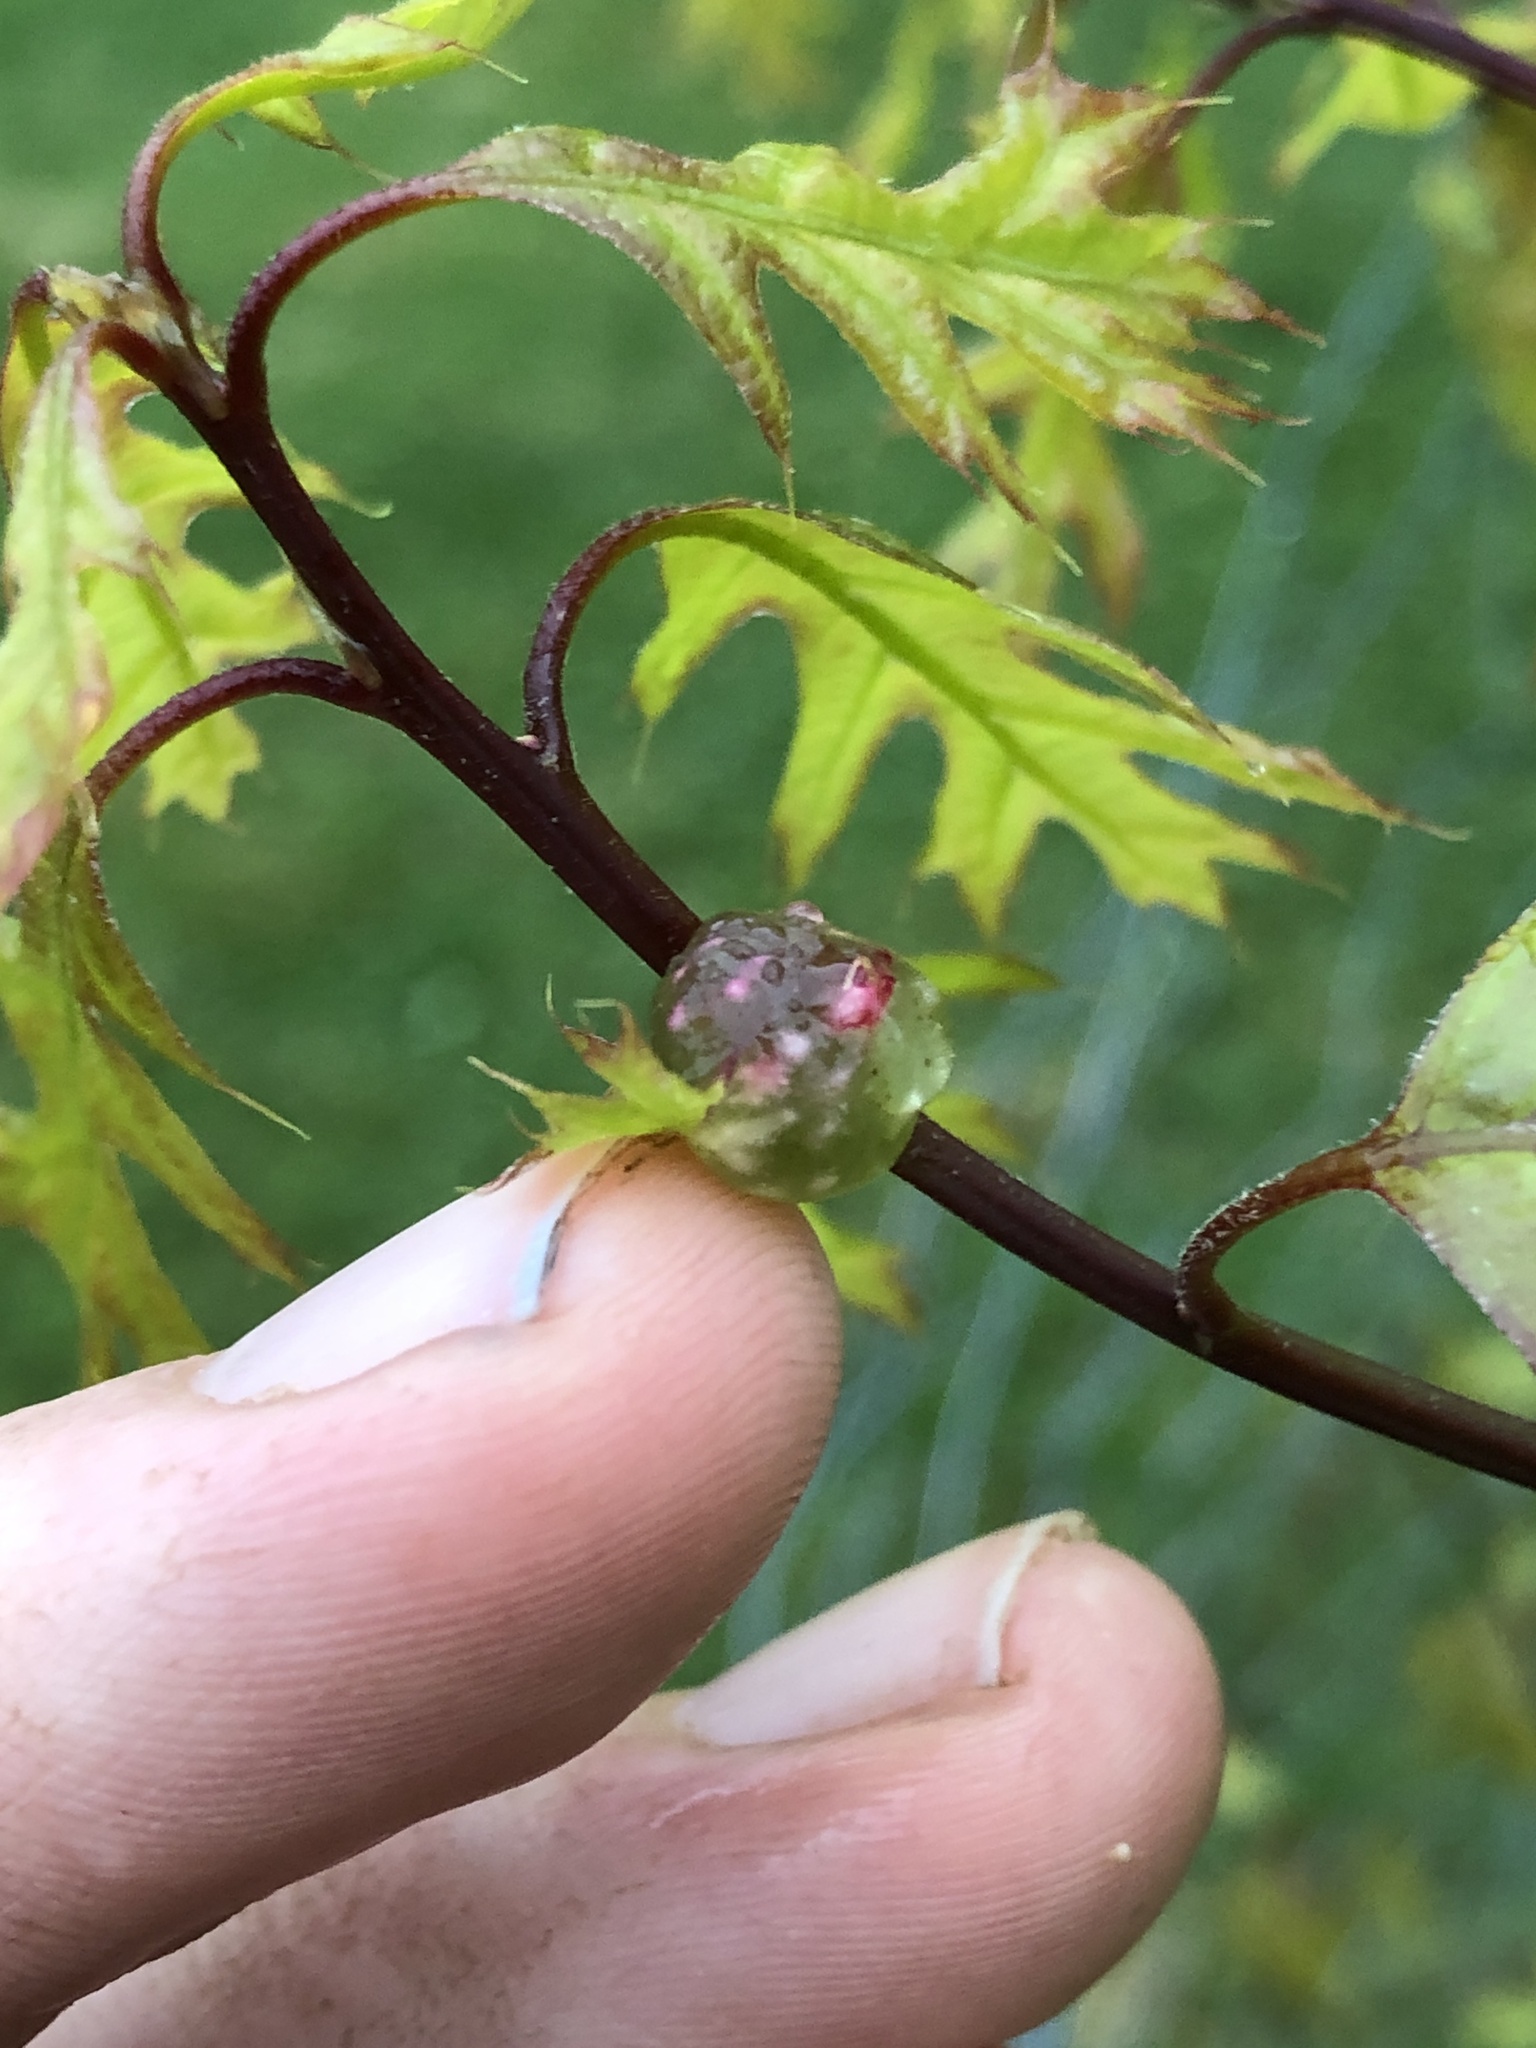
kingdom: Animalia
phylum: Arthropoda
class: Insecta
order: Hymenoptera
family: Cynipidae
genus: Dryocosmus
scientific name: Dryocosmus quercuspalustris
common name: Succulent oak gall wasp
